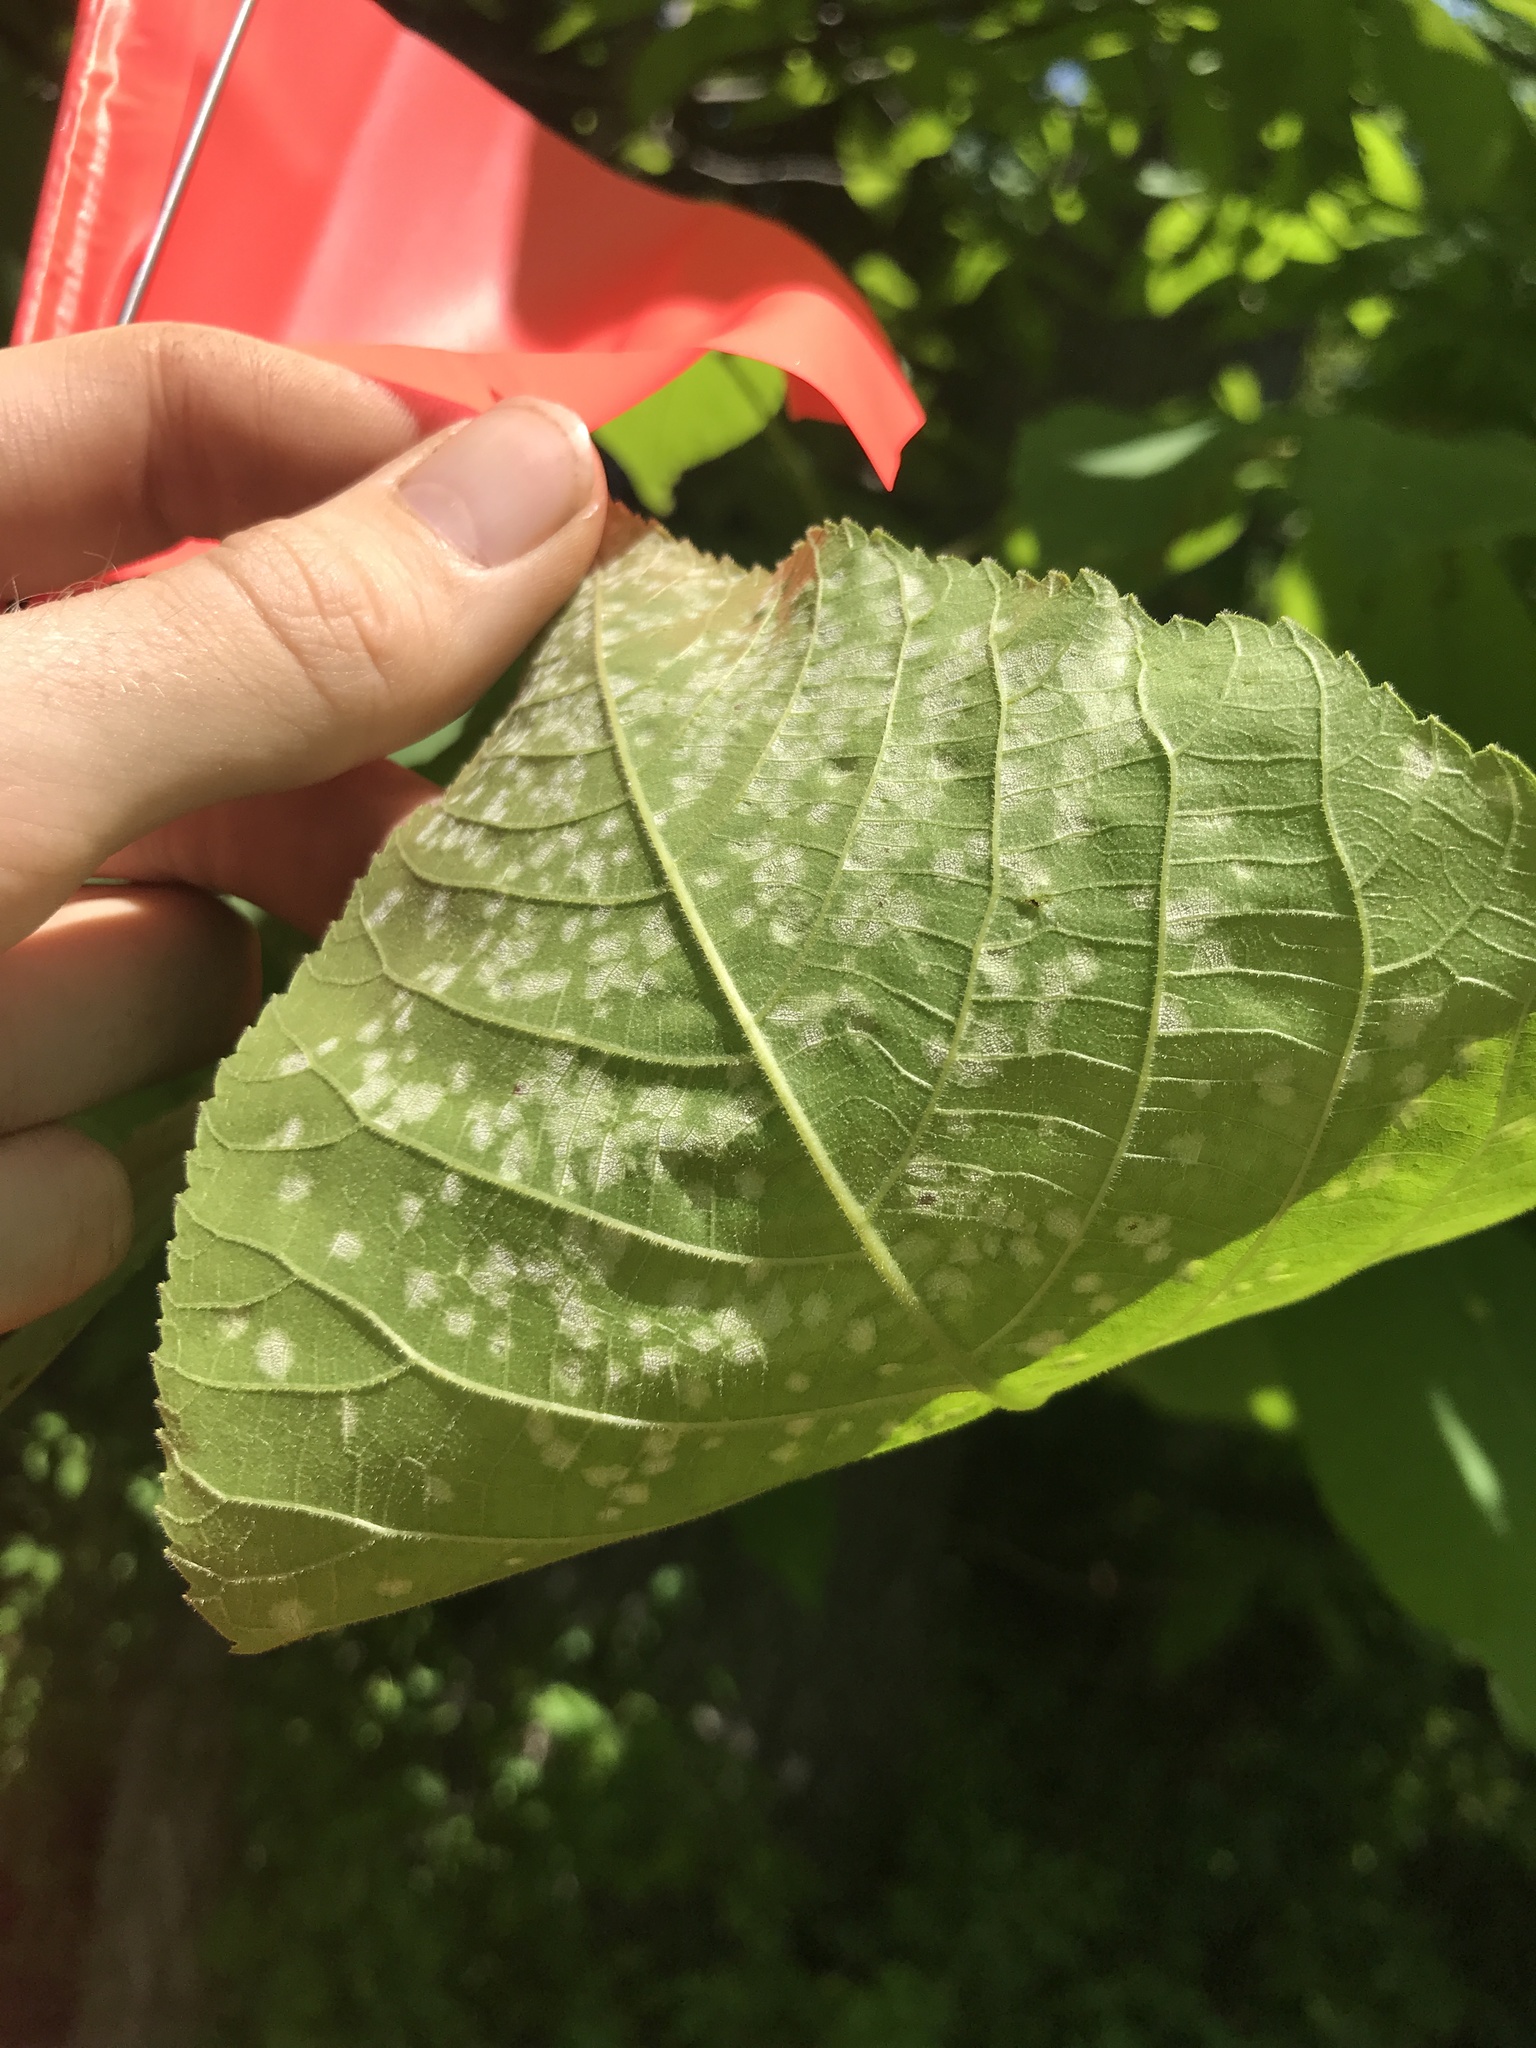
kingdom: Fungi
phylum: Basidiomycota
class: Exobasidiomycetes
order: Microstromatales
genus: Pseudomicrostroma
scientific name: Pseudomicrostroma juglandis
